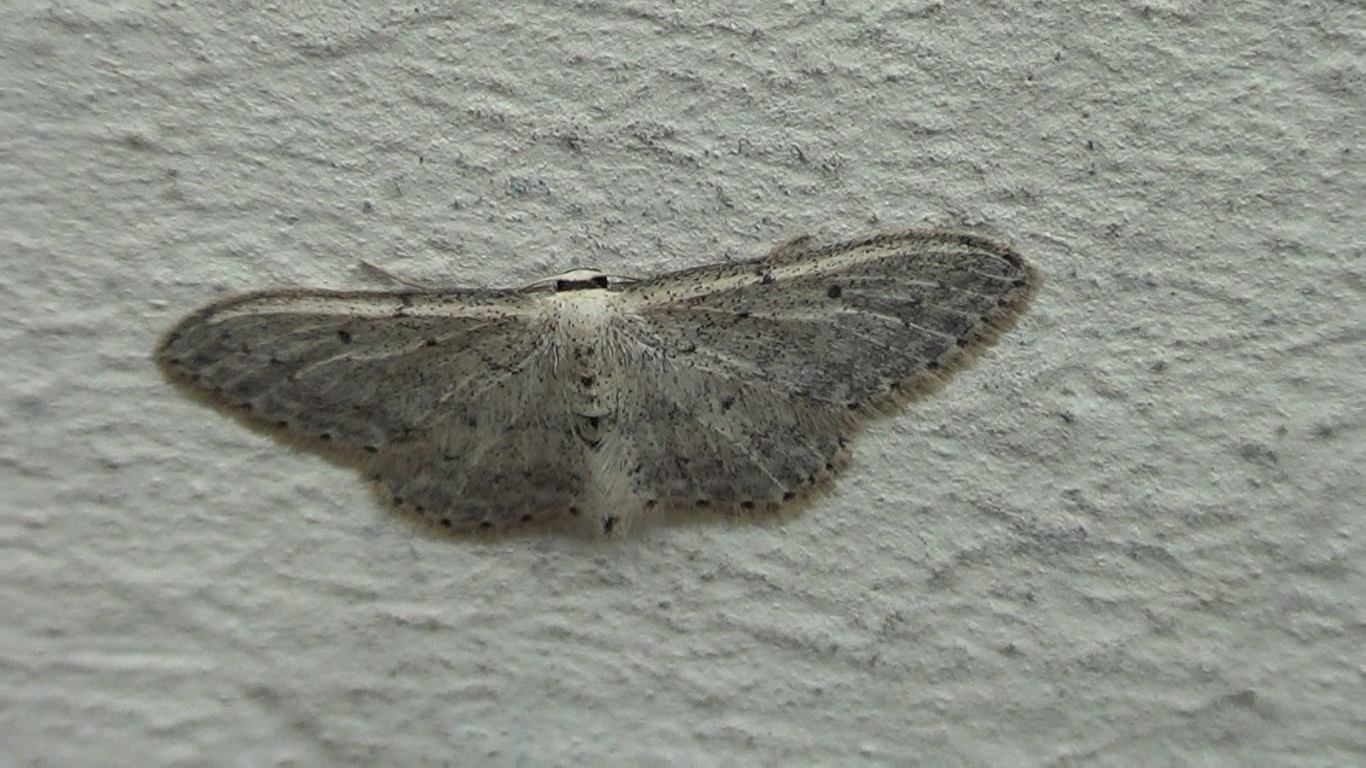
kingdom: Animalia
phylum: Arthropoda
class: Insecta
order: Lepidoptera
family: Geometridae
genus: Idaea
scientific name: Idaea seriata
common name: Small dusty wave
